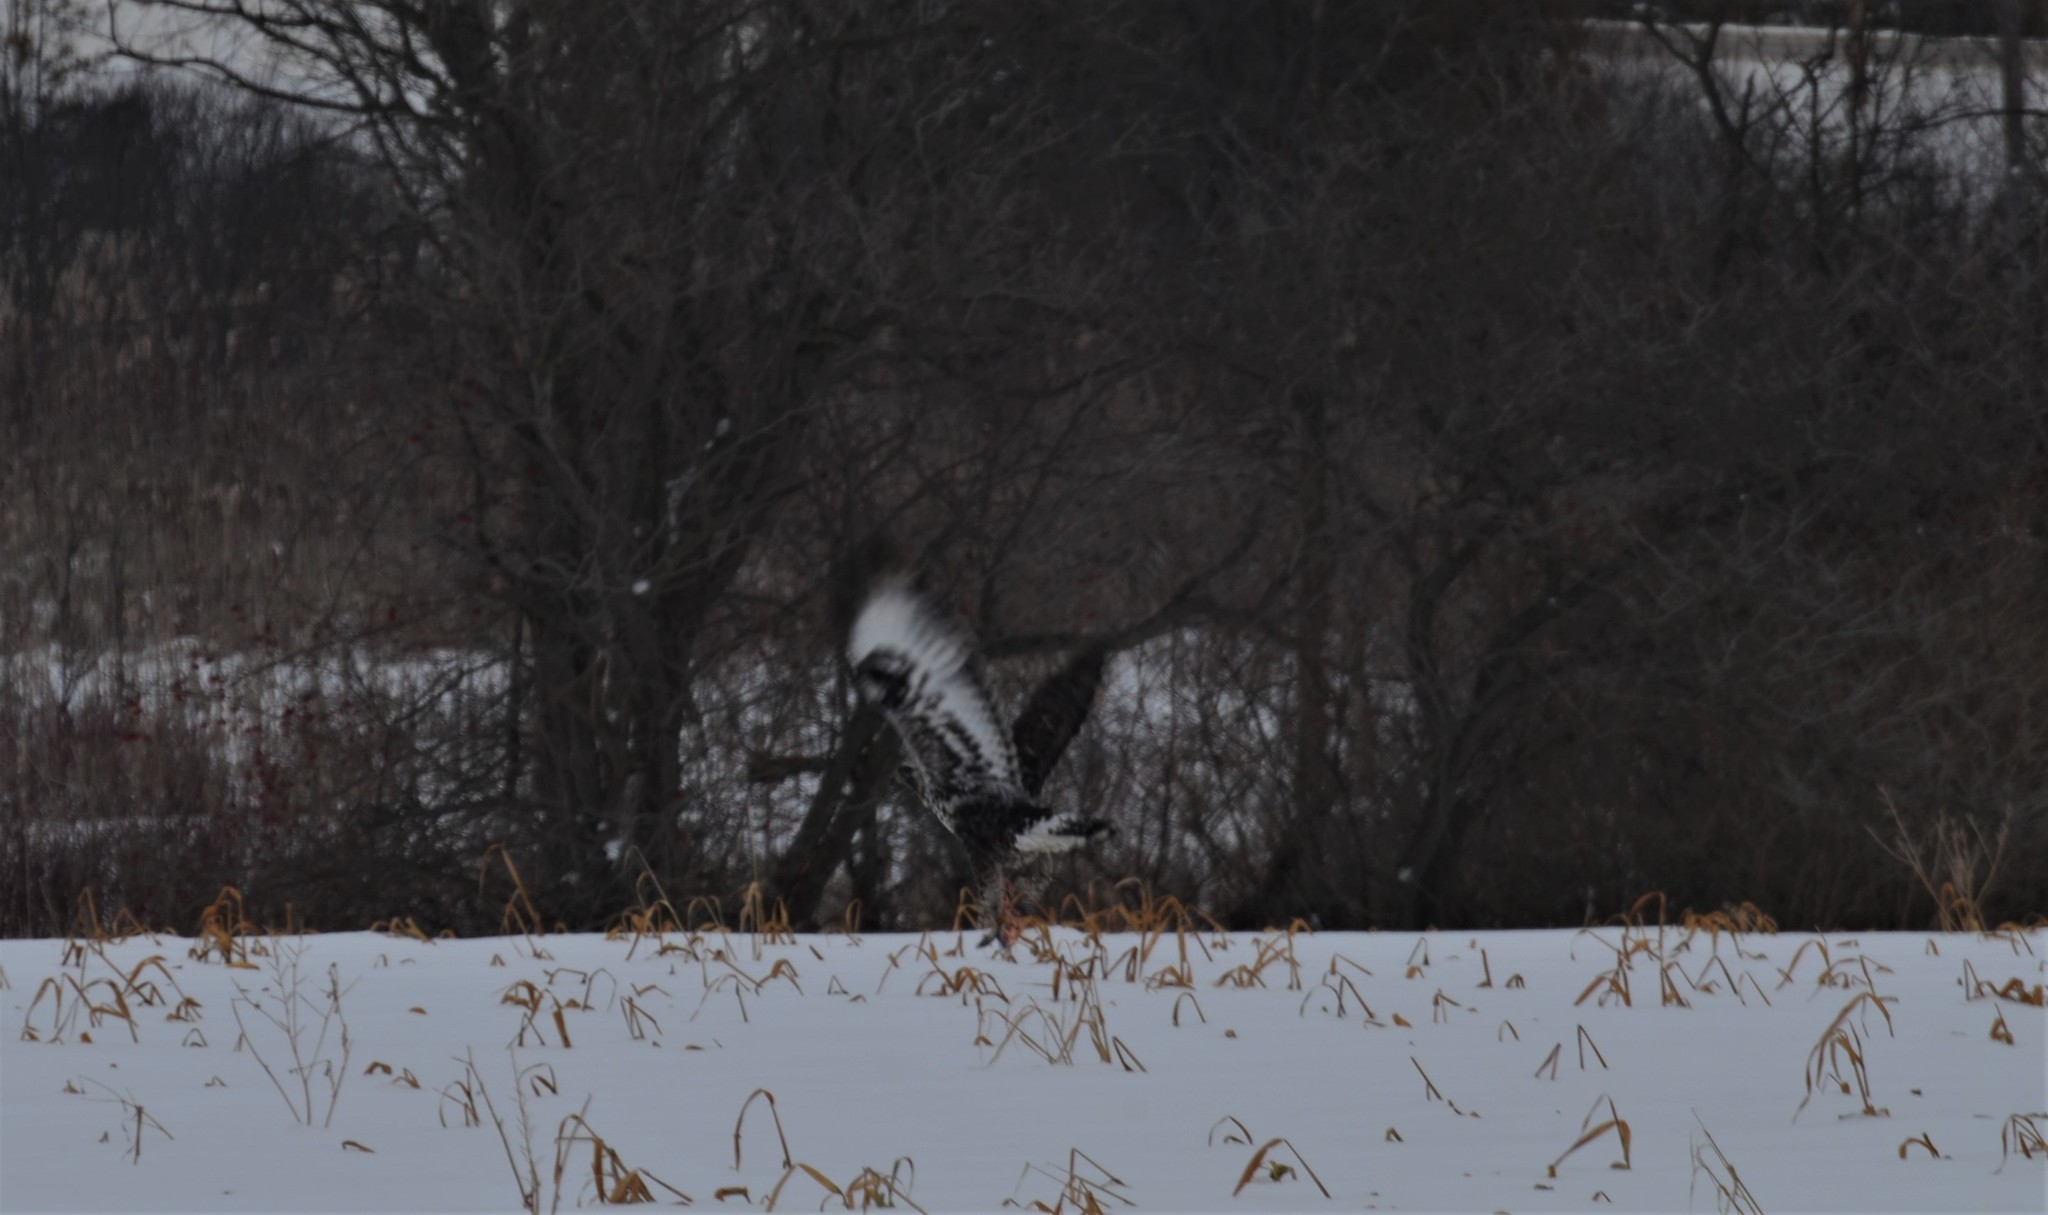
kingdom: Animalia
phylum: Chordata
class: Aves
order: Accipitriformes
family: Accipitridae
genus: Buteo
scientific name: Buteo lagopus
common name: Rough-legged buzzard
